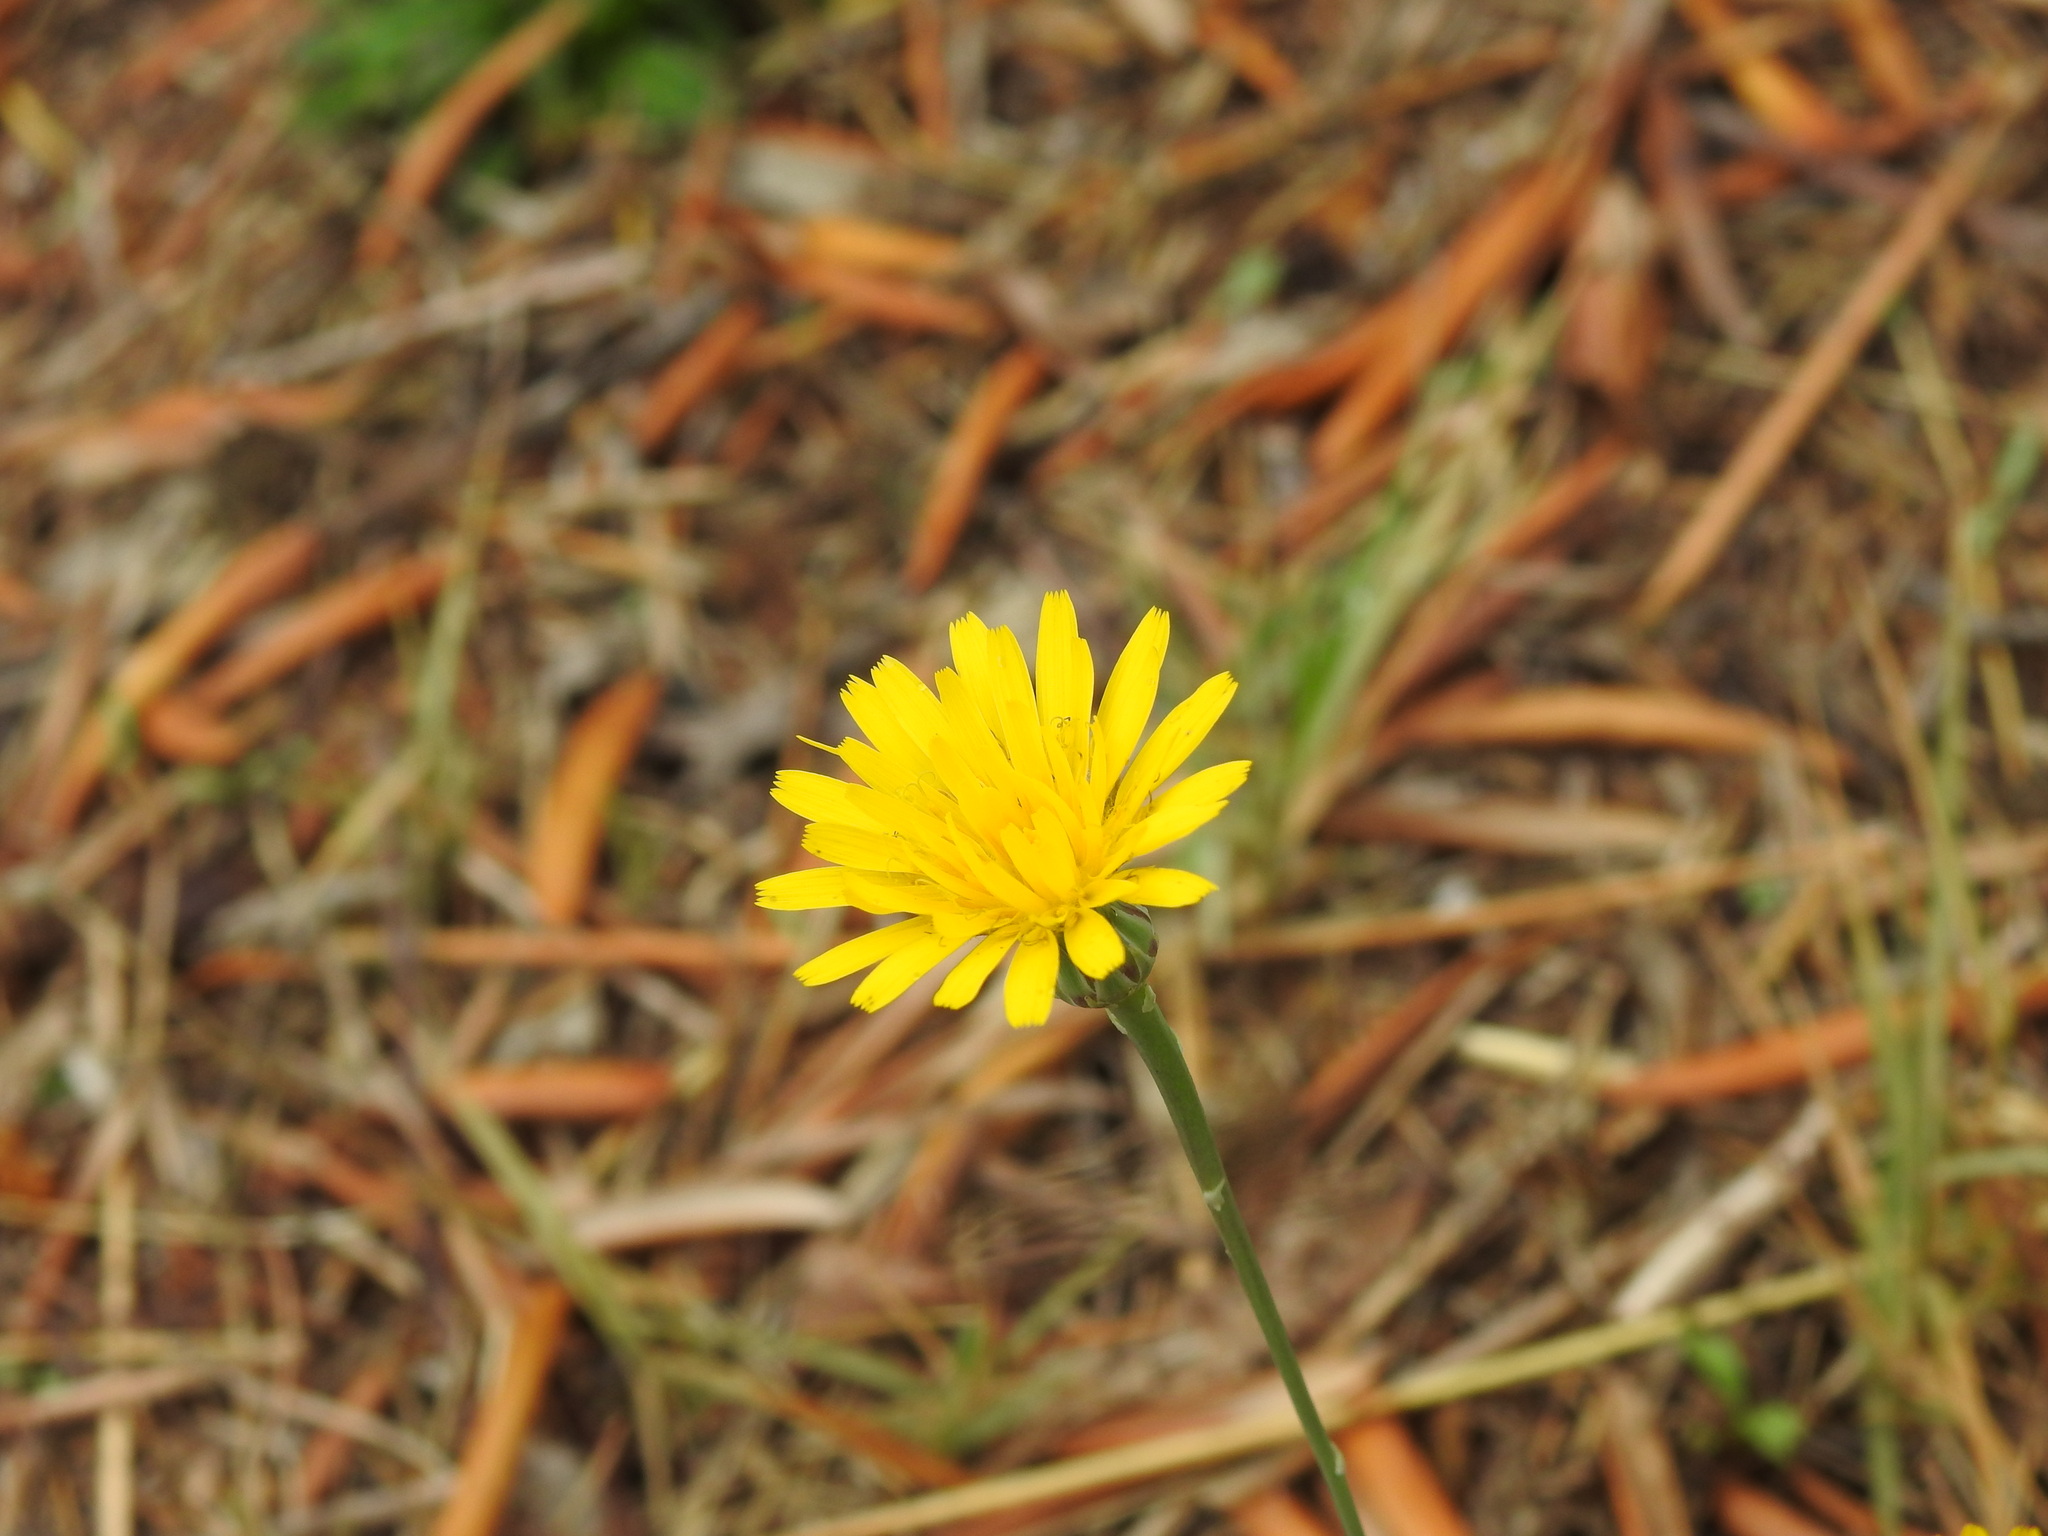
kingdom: Plantae
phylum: Tracheophyta
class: Magnoliopsida
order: Asterales
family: Asteraceae
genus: Reichardia
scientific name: Reichardia picroides
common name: Common brighteyes
